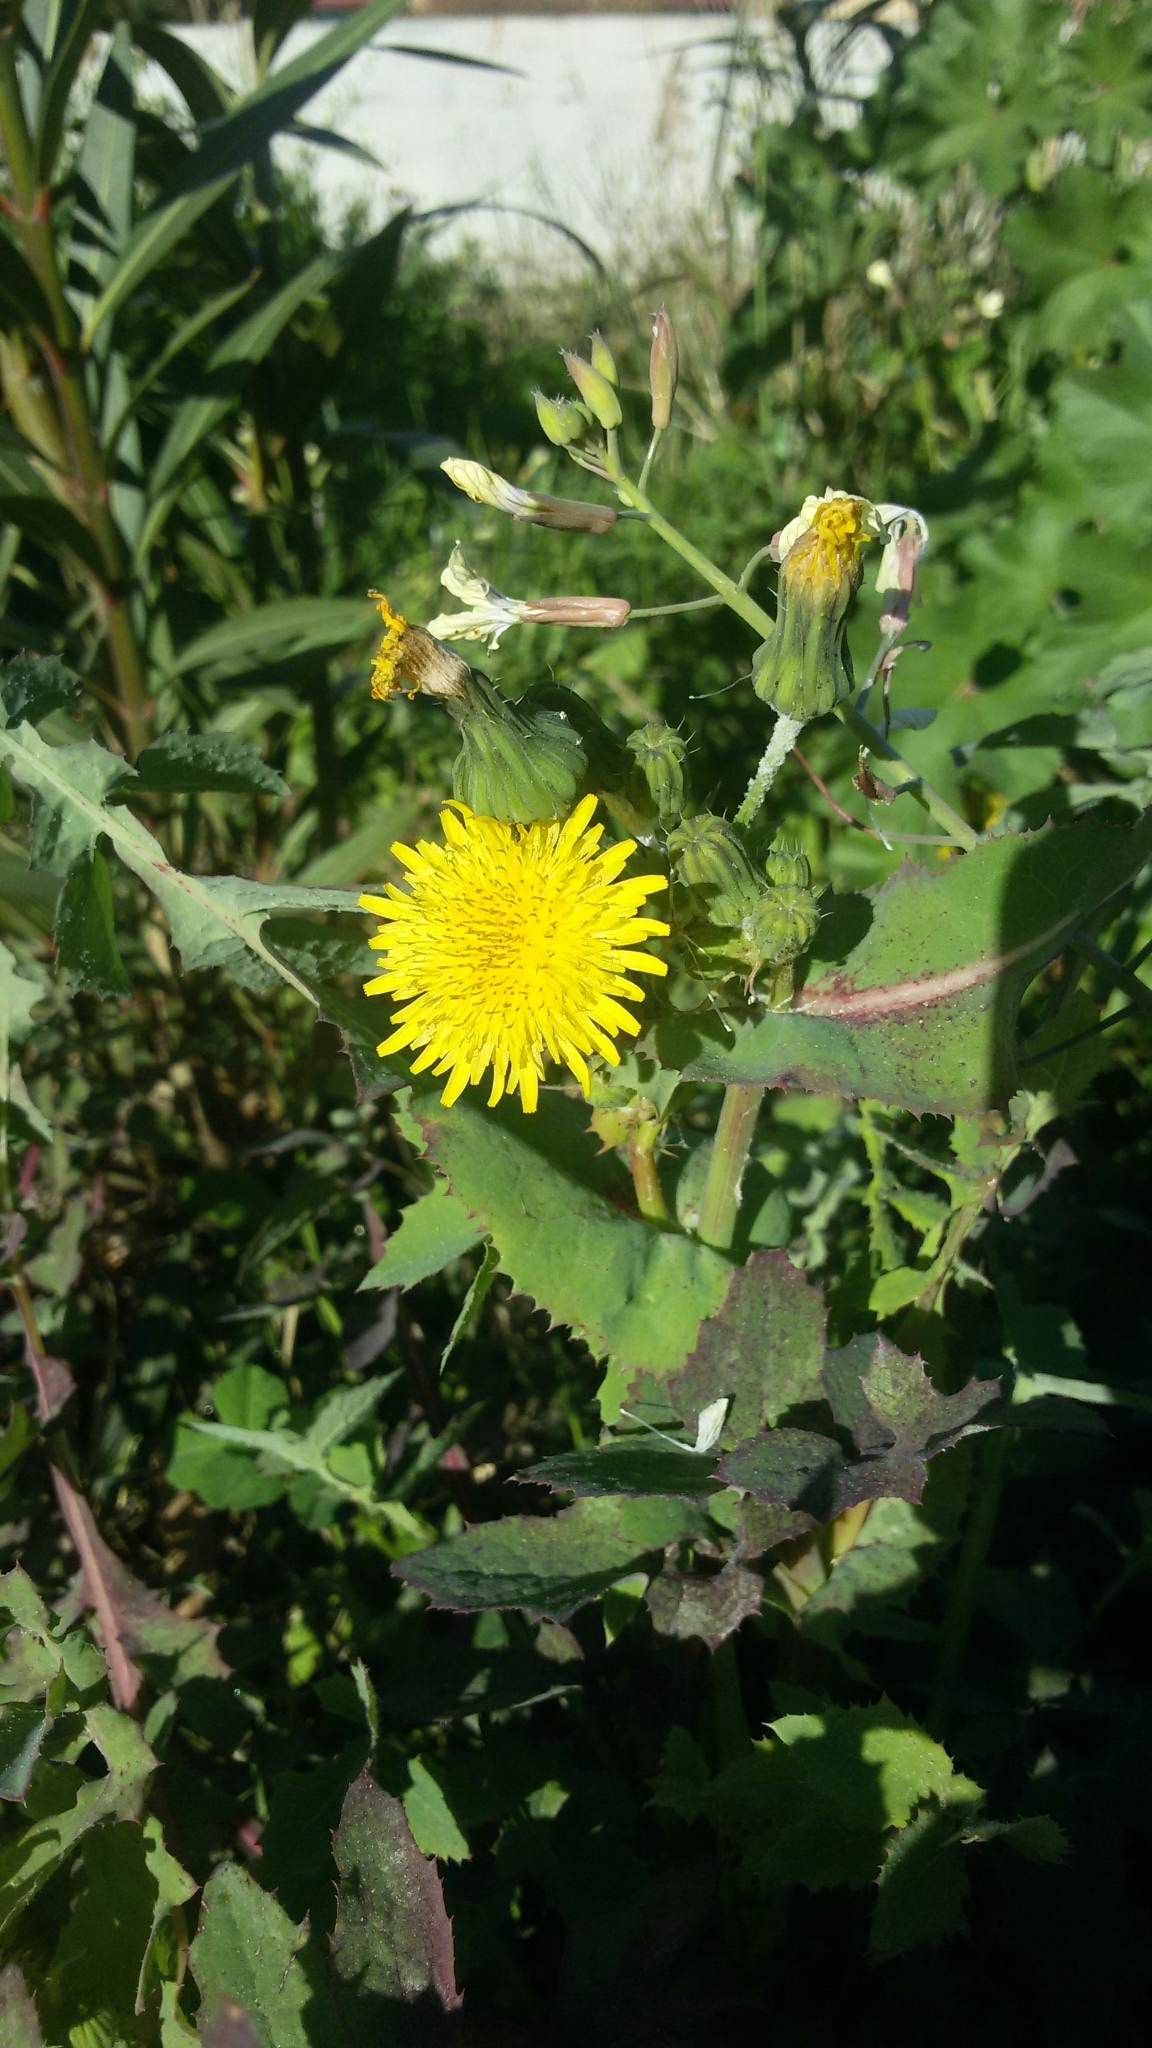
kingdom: Plantae
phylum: Tracheophyta
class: Magnoliopsida
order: Asterales
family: Asteraceae
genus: Sonchus
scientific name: Sonchus oleraceus
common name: Common sowthistle
